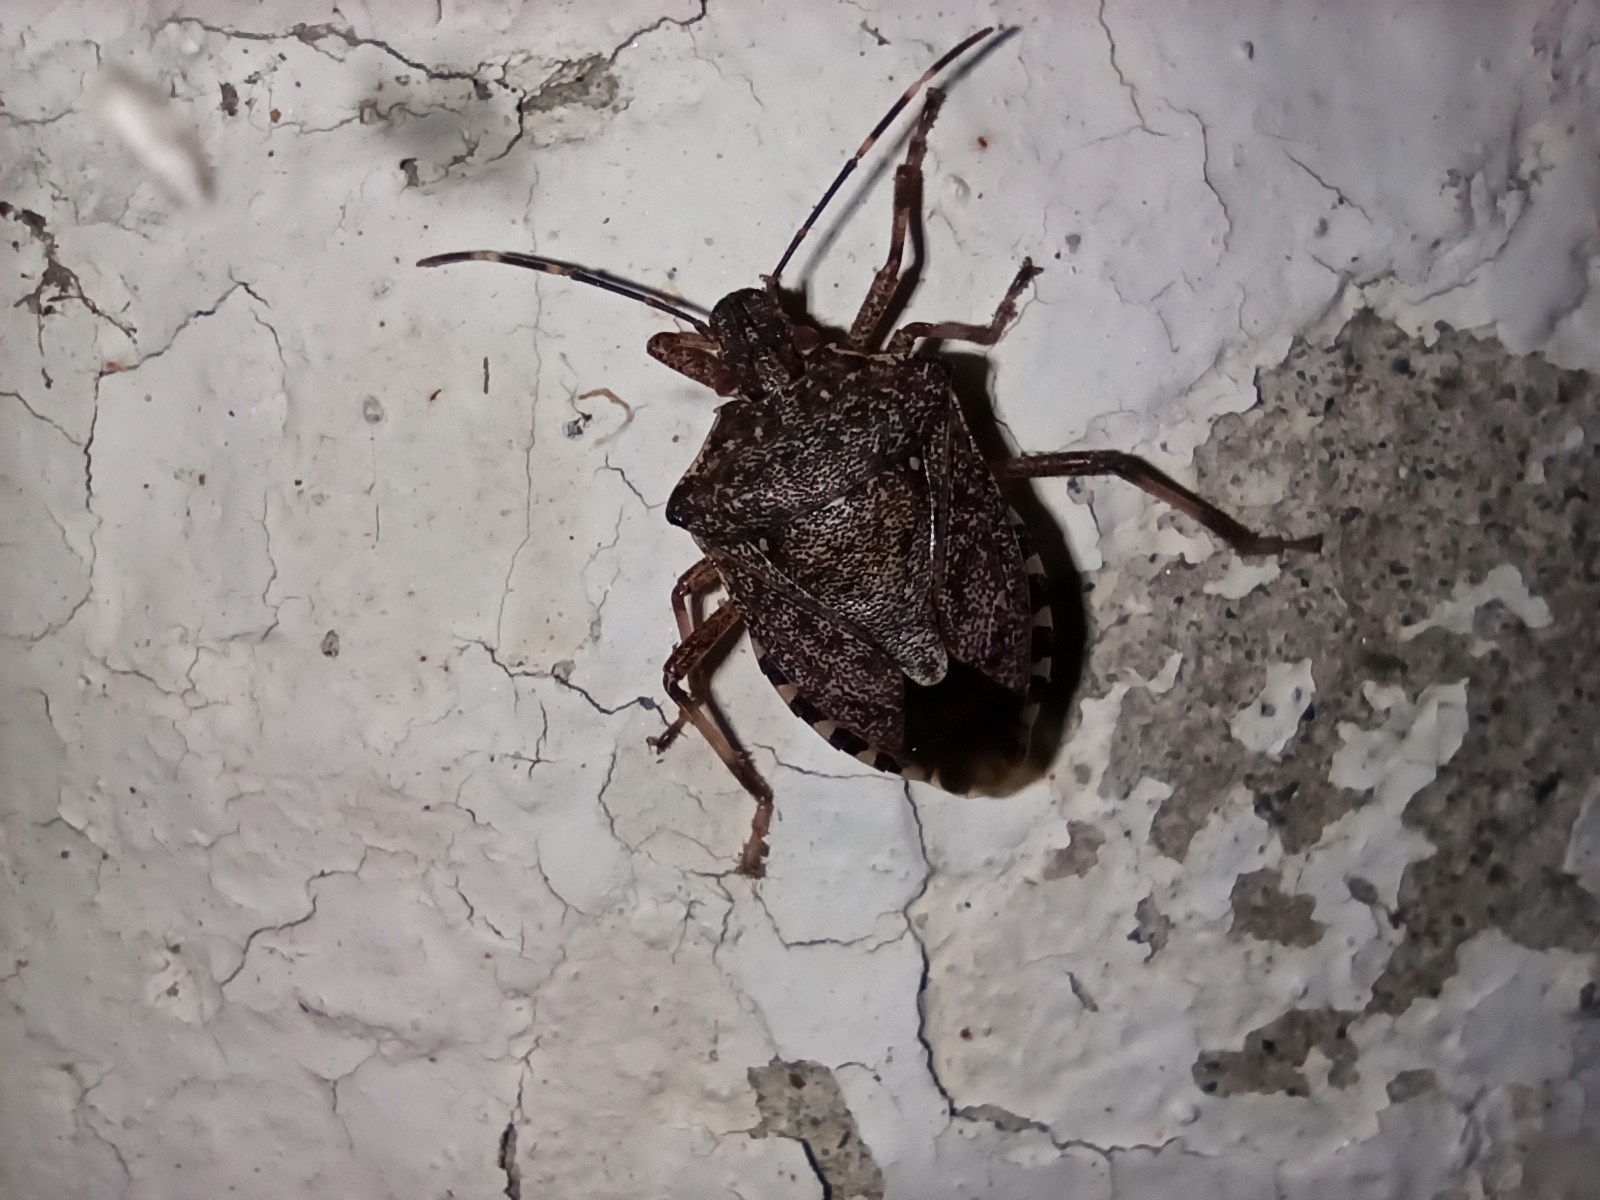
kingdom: Animalia
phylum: Arthropoda
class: Insecta
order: Hemiptera
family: Pentatomidae
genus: Halyomorpha
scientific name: Halyomorpha halys
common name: Brown marmorated stink bug
